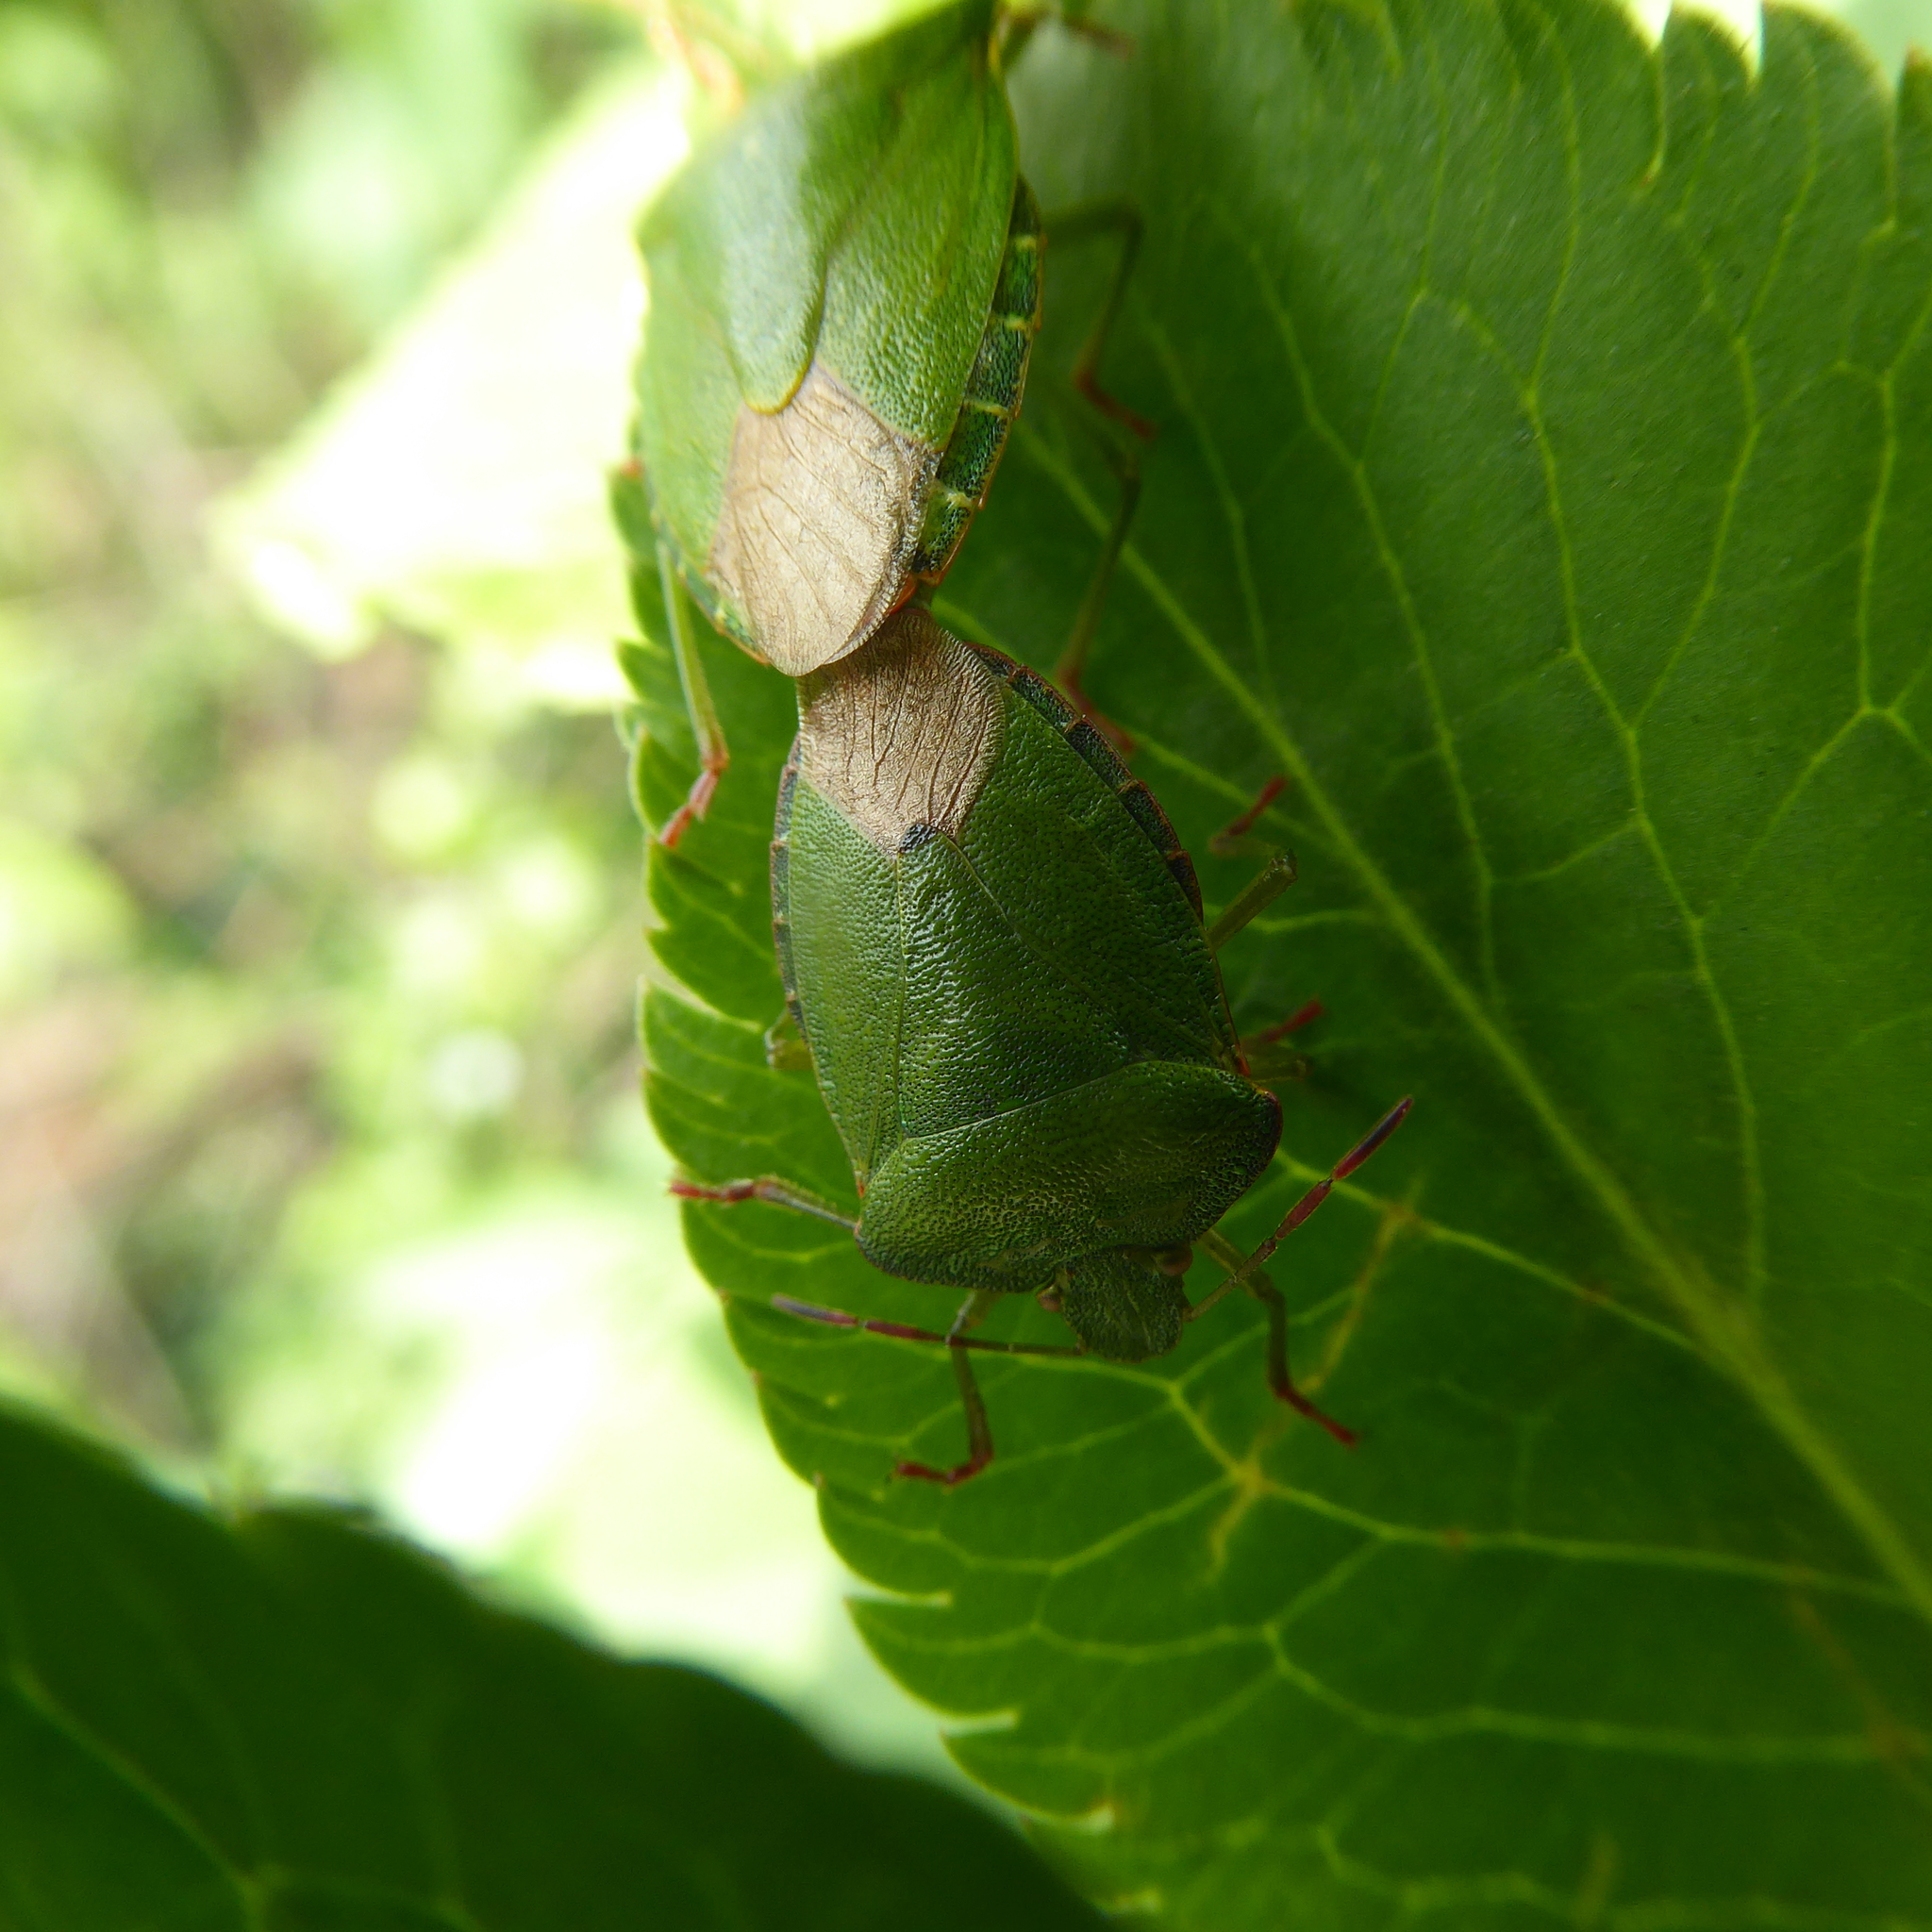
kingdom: Animalia
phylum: Arthropoda
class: Insecta
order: Hemiptera
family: Pentatomidae
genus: Palomena
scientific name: Palomena prasina
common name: Green shieldbug
